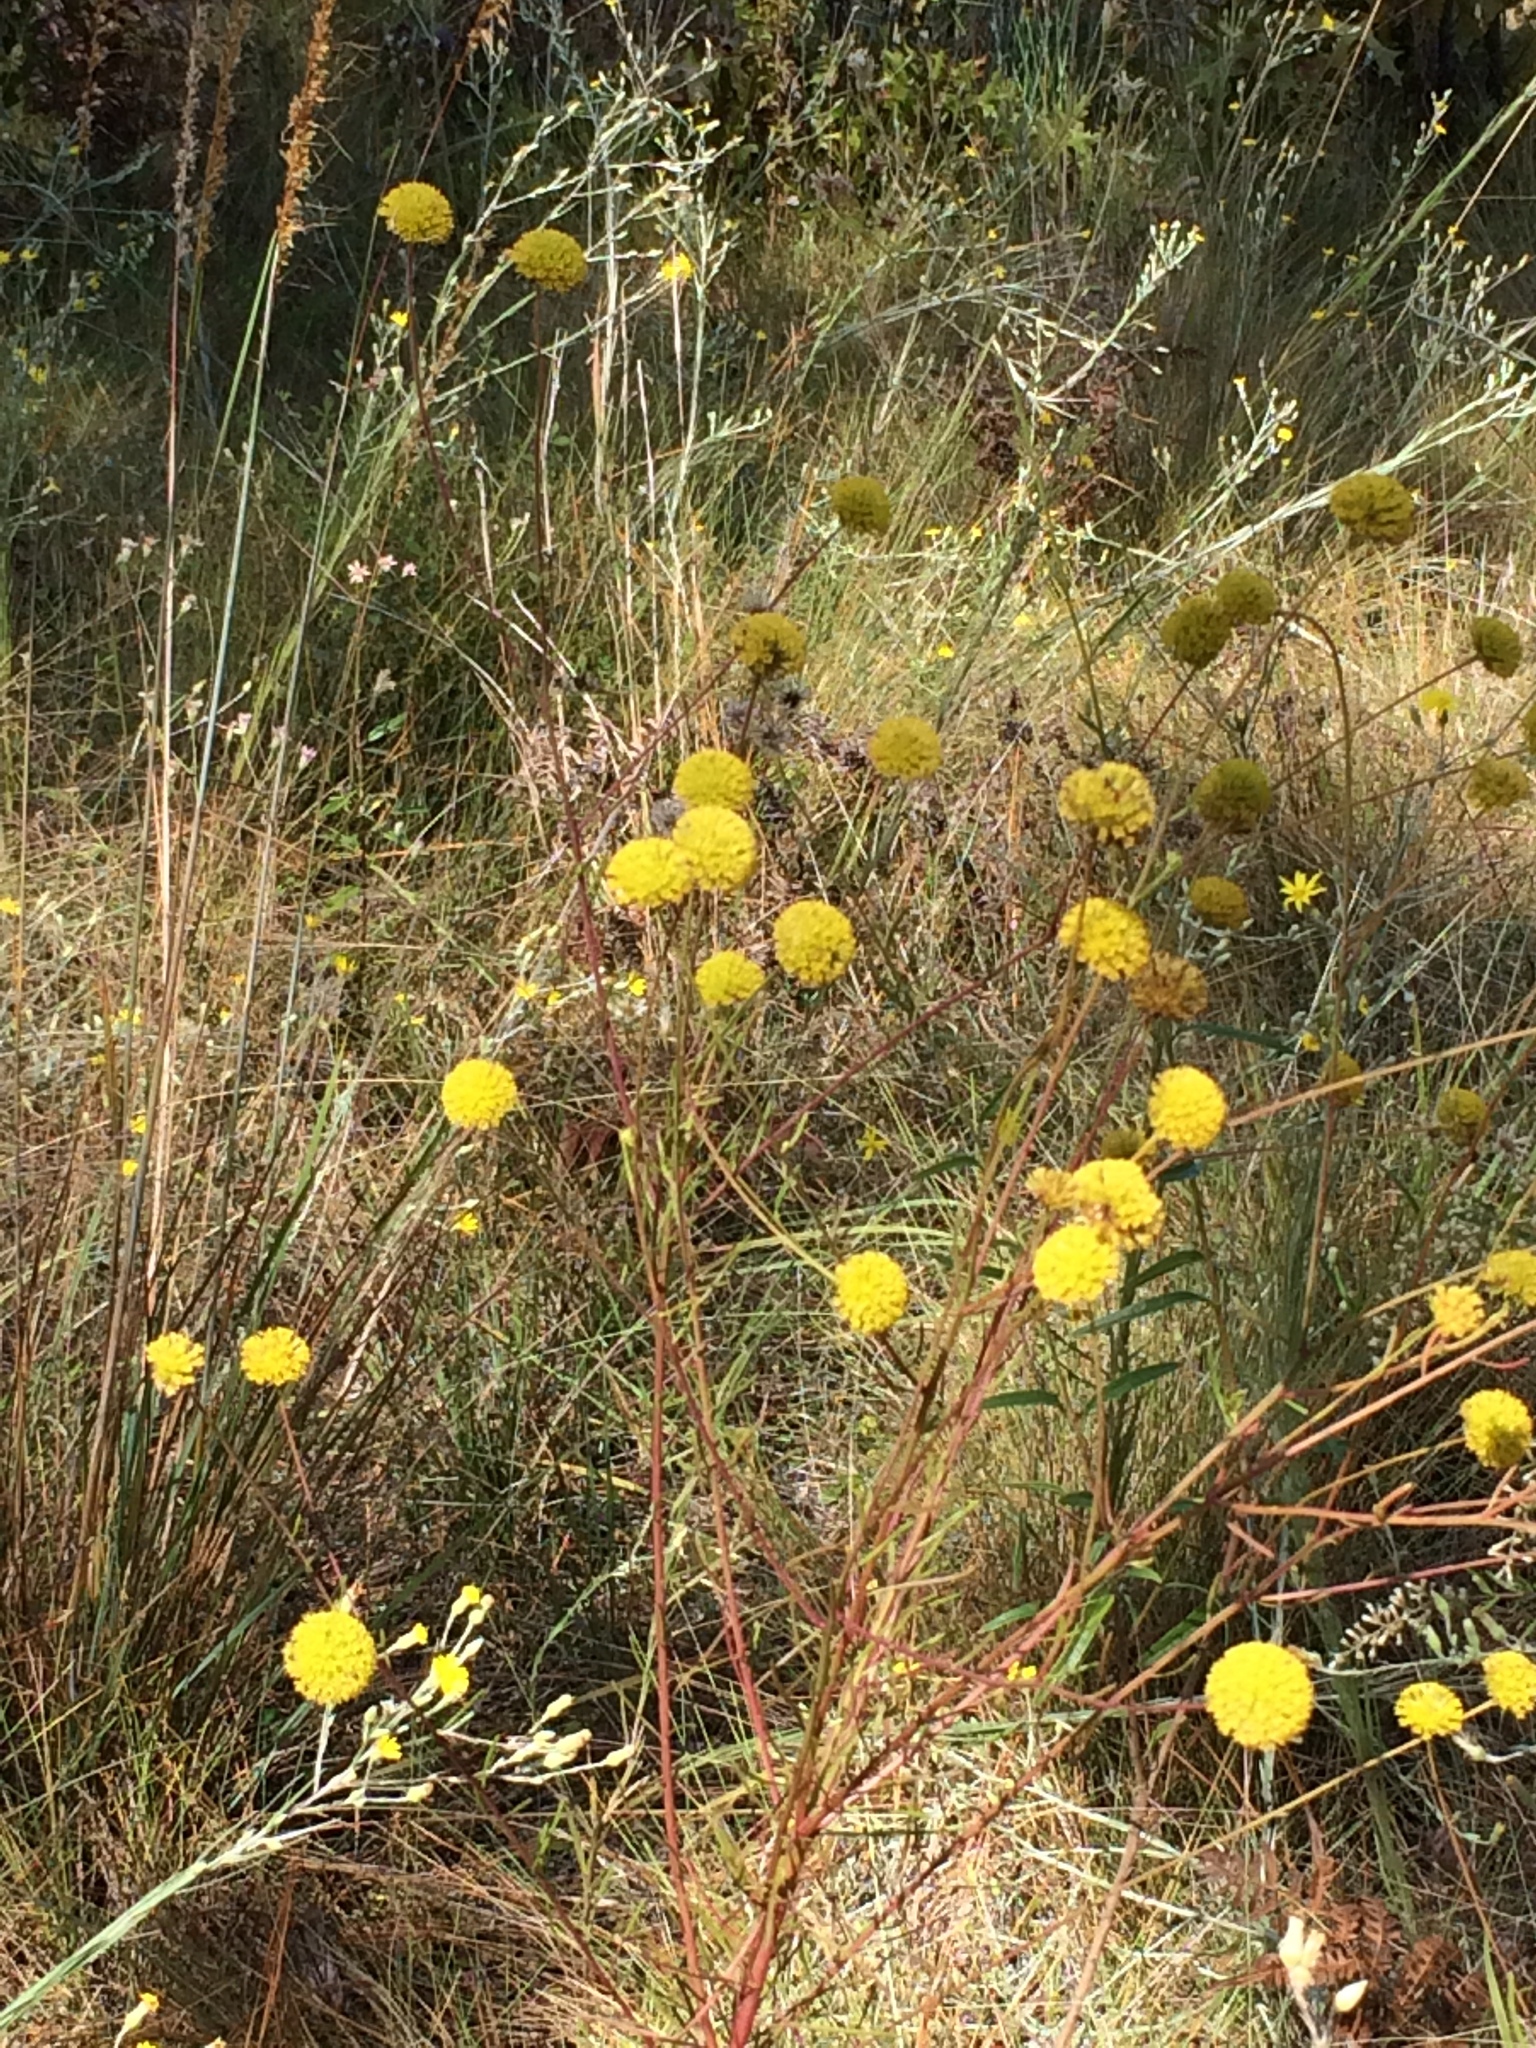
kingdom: Plantae
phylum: Tracheophyta
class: Magnoliopsida
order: Fabales
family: Polygalaceae
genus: Polygala
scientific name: Polygala rugelii
